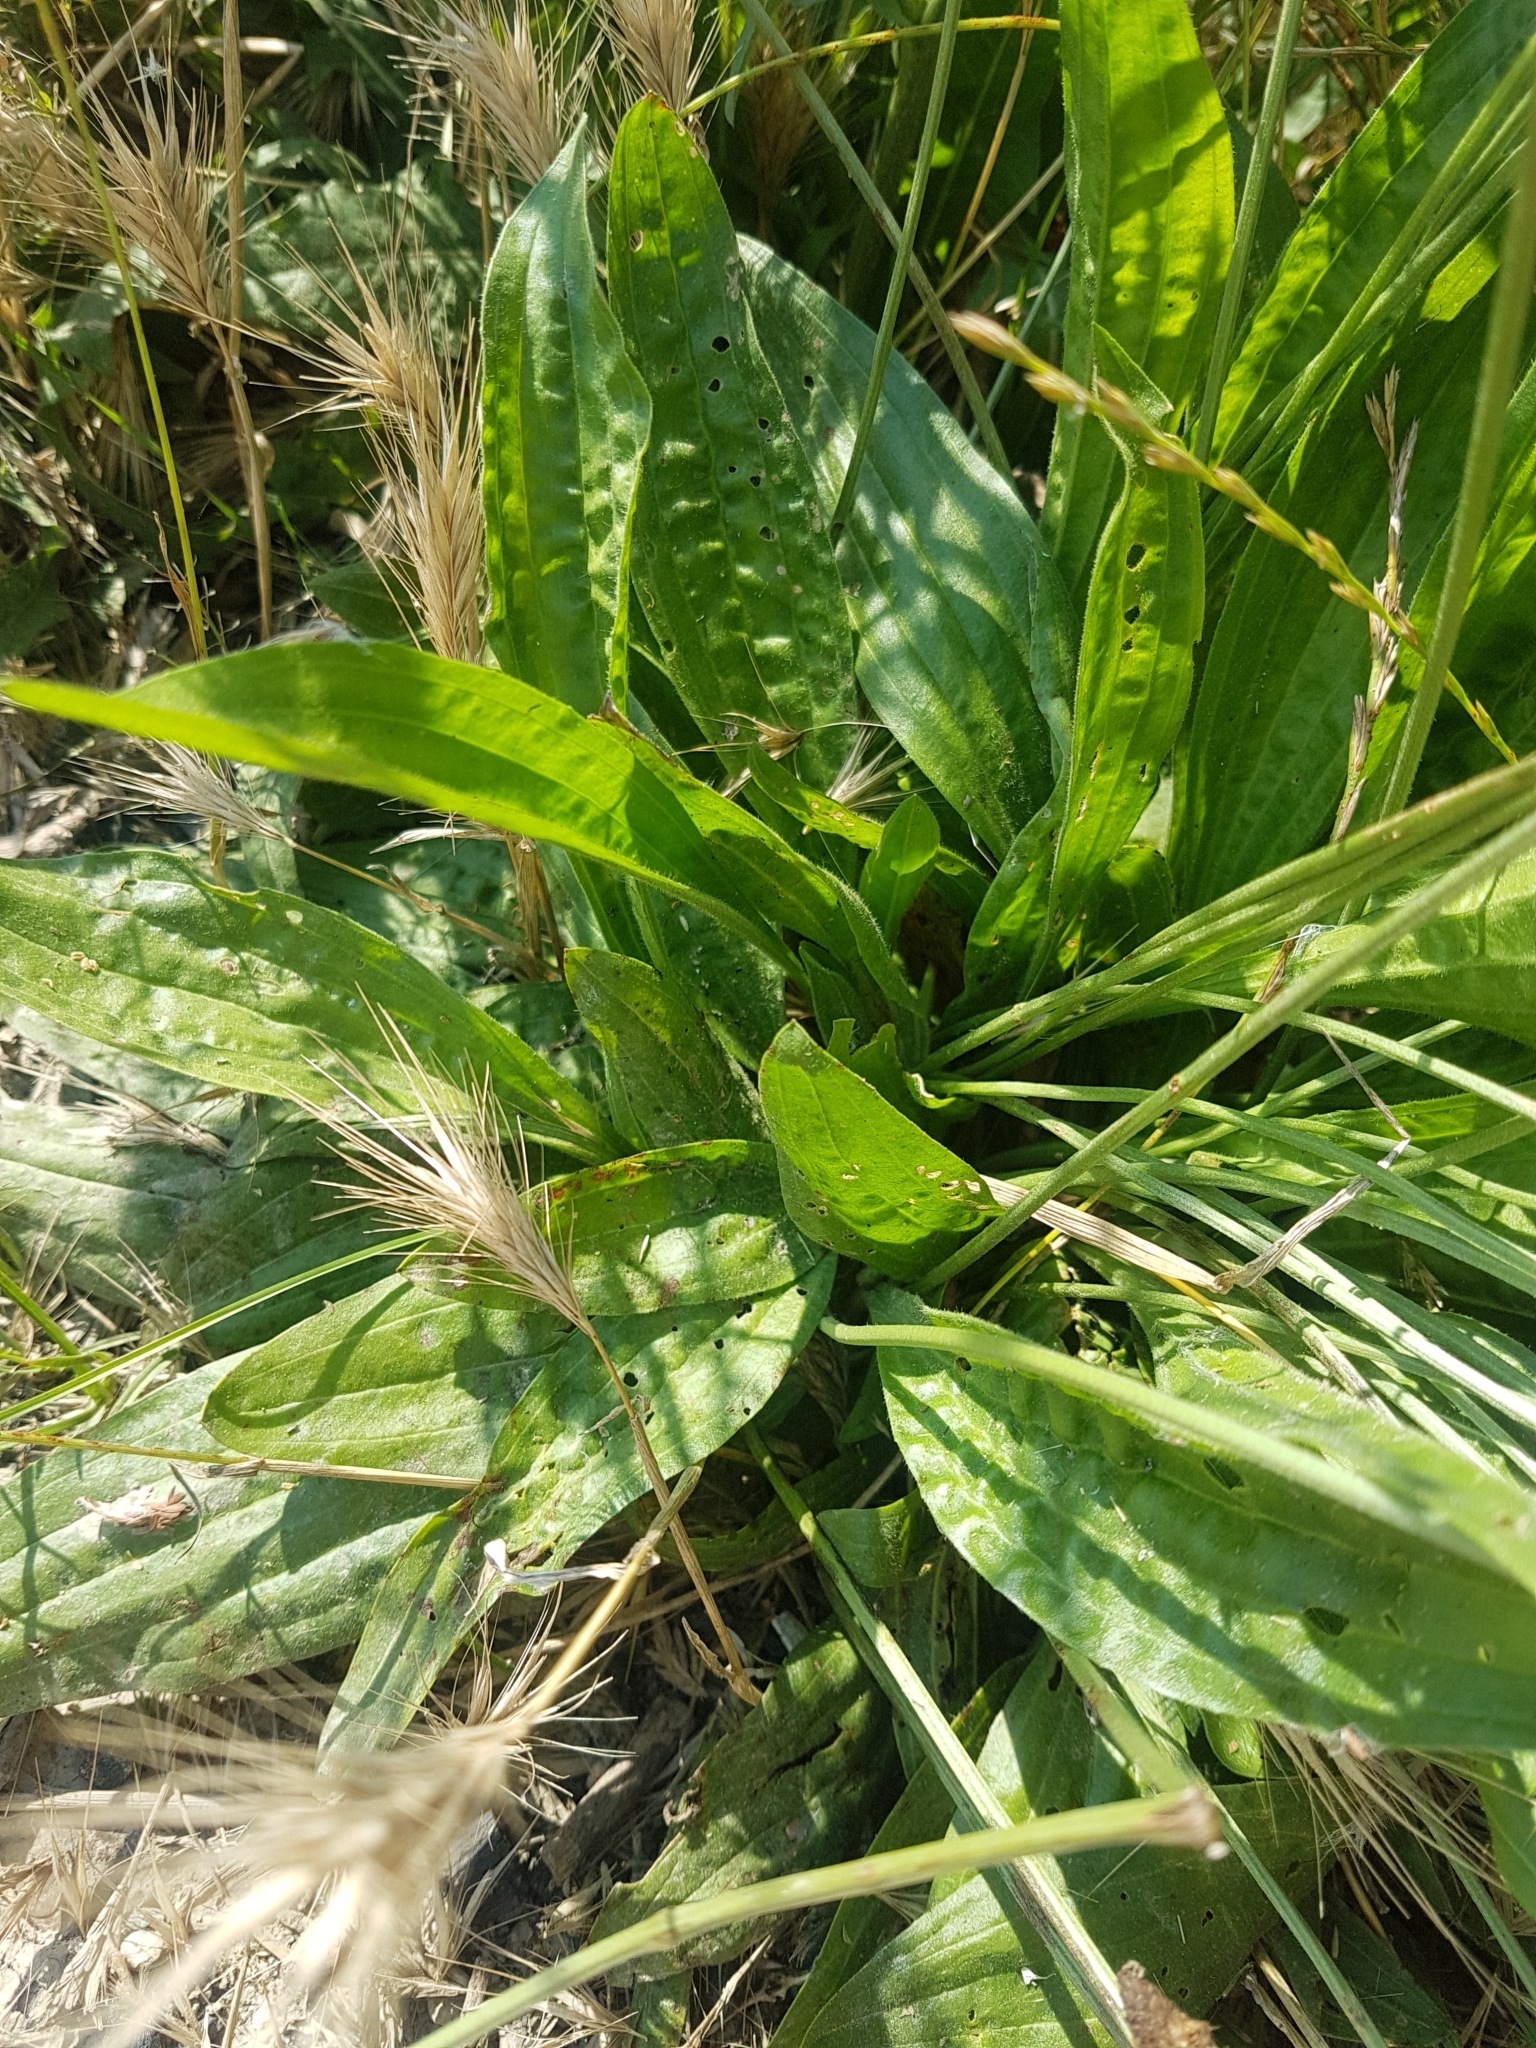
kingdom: Plantae
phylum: Tracheophyta
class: Magnoliopsida
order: Lamiales
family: Plantaginaceae
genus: Plantago
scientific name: Plantago lanceolata
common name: Ribwort plantain
